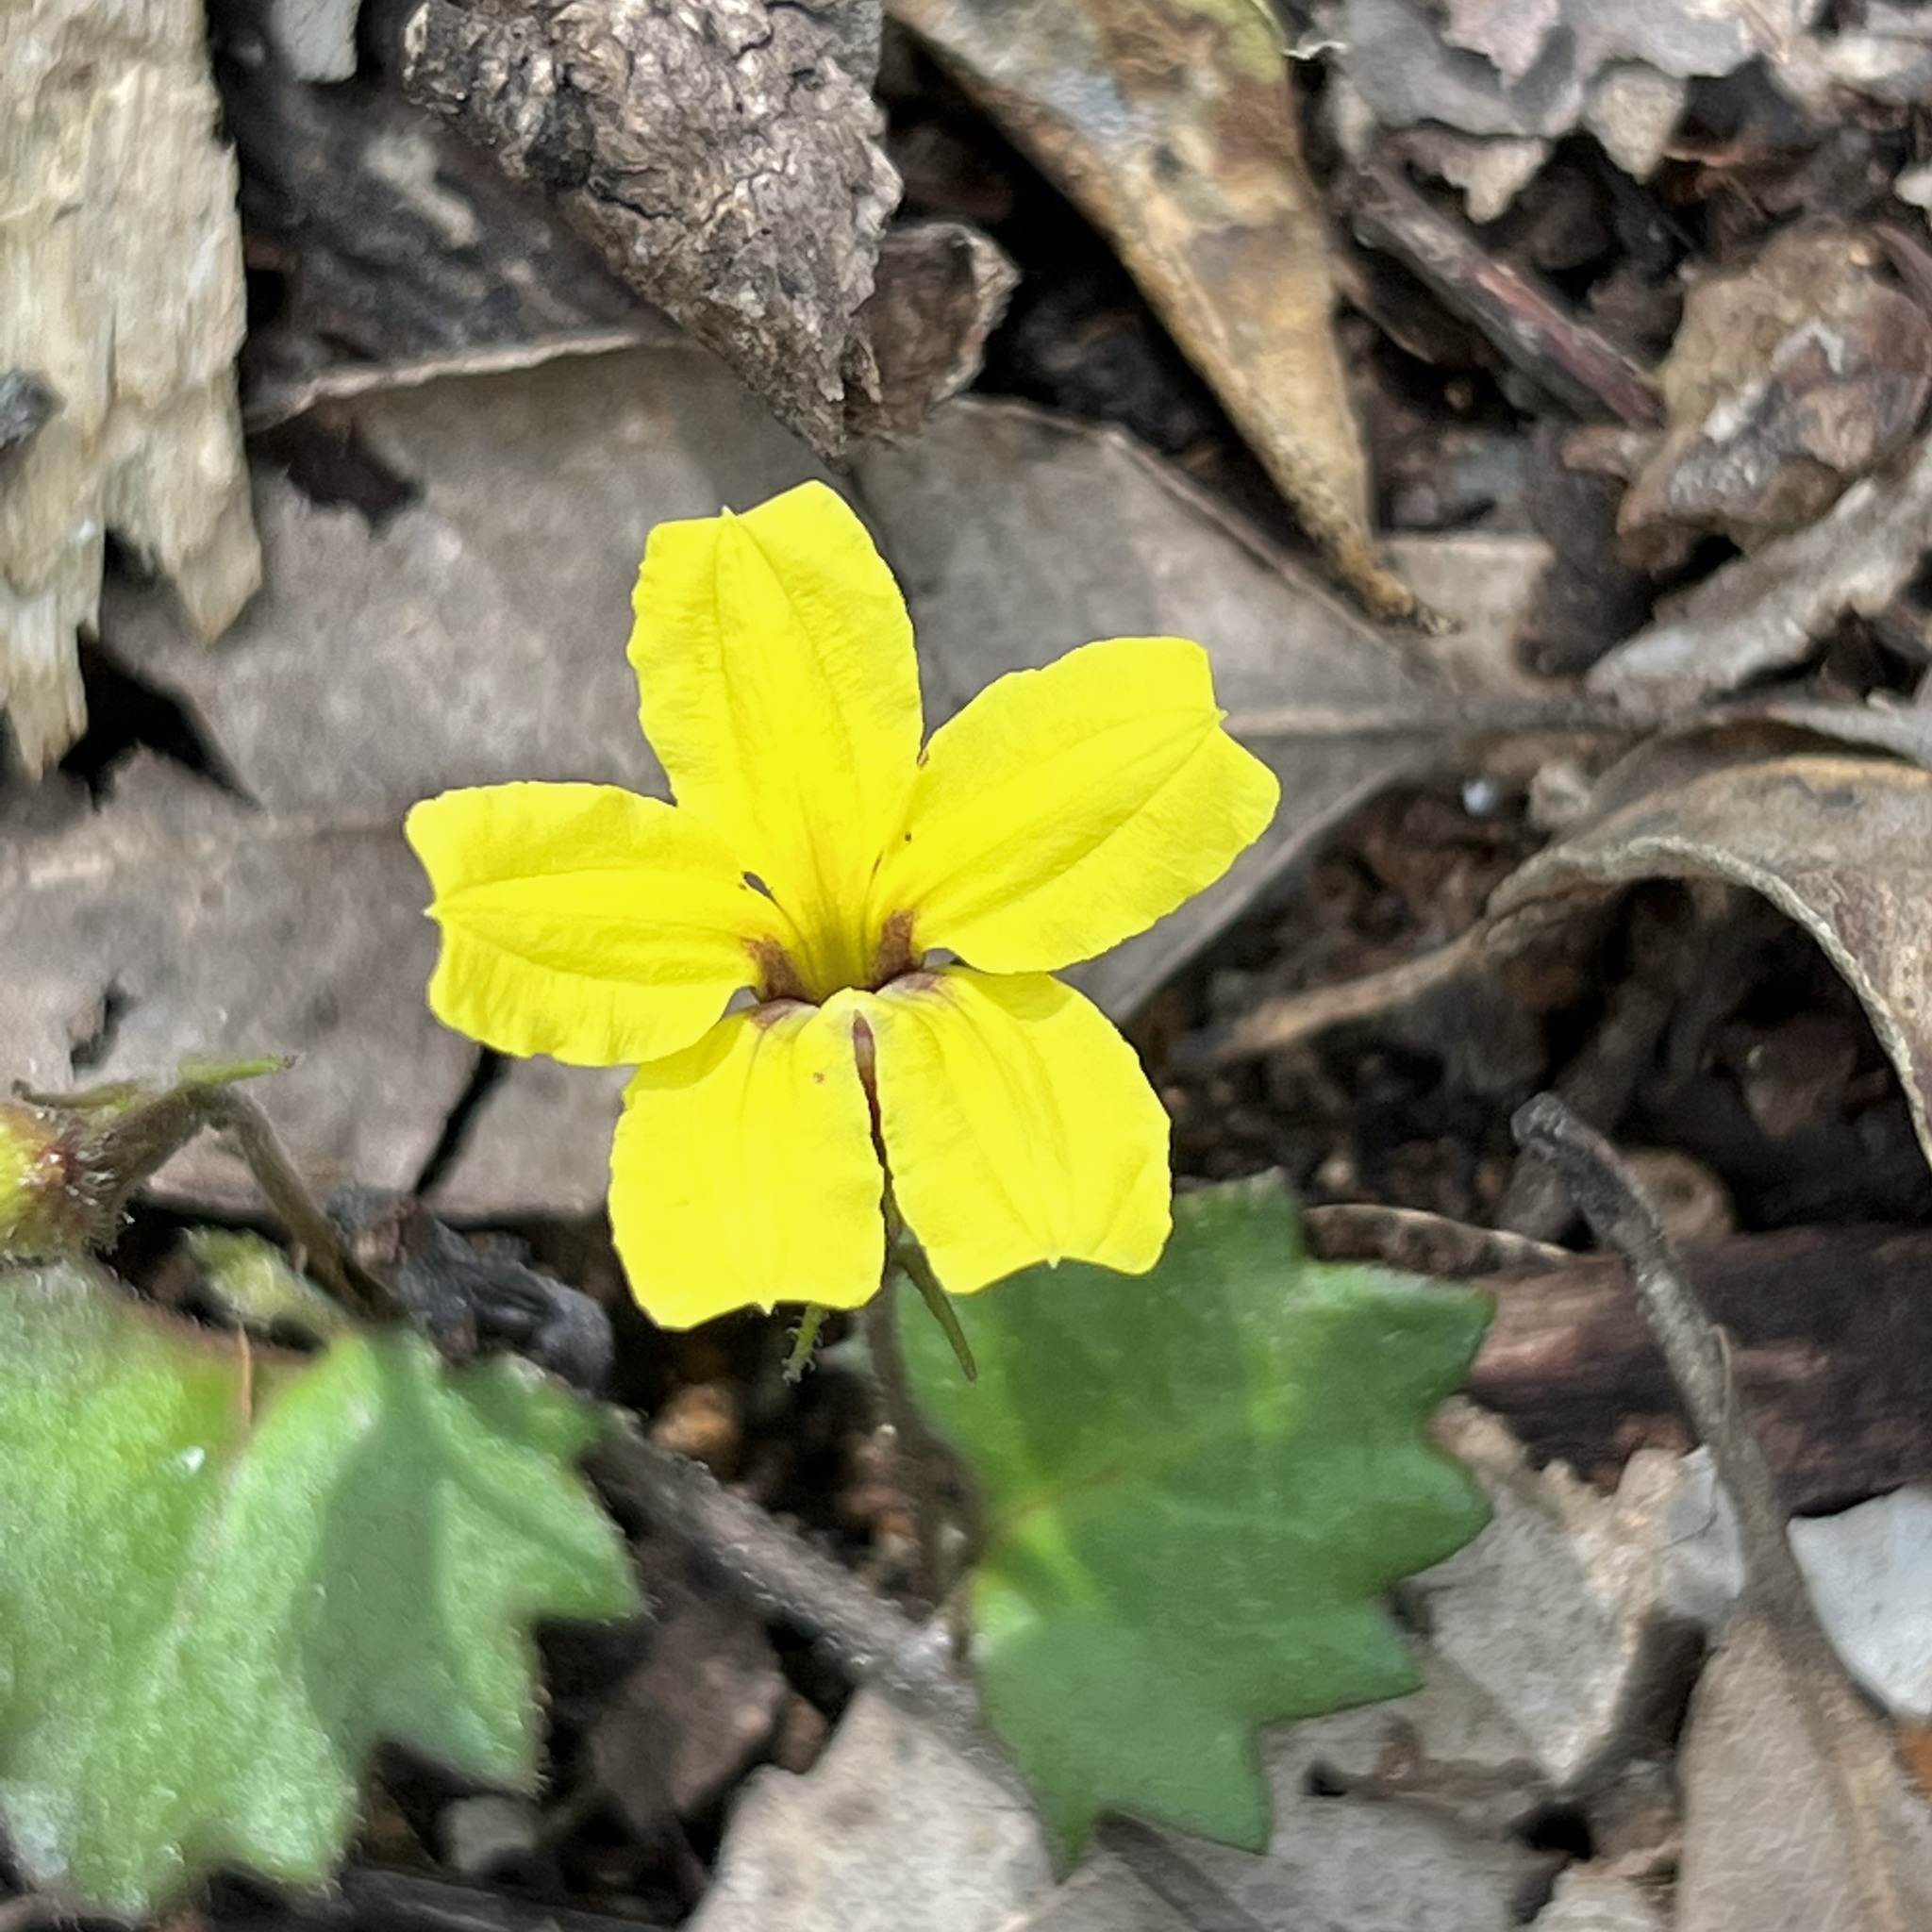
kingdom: Plantae
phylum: Tracheophyta
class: Magnoliopsida
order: Asterales
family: Goodeniaceae
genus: Goodenia
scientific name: Goodenia rotundifolia
